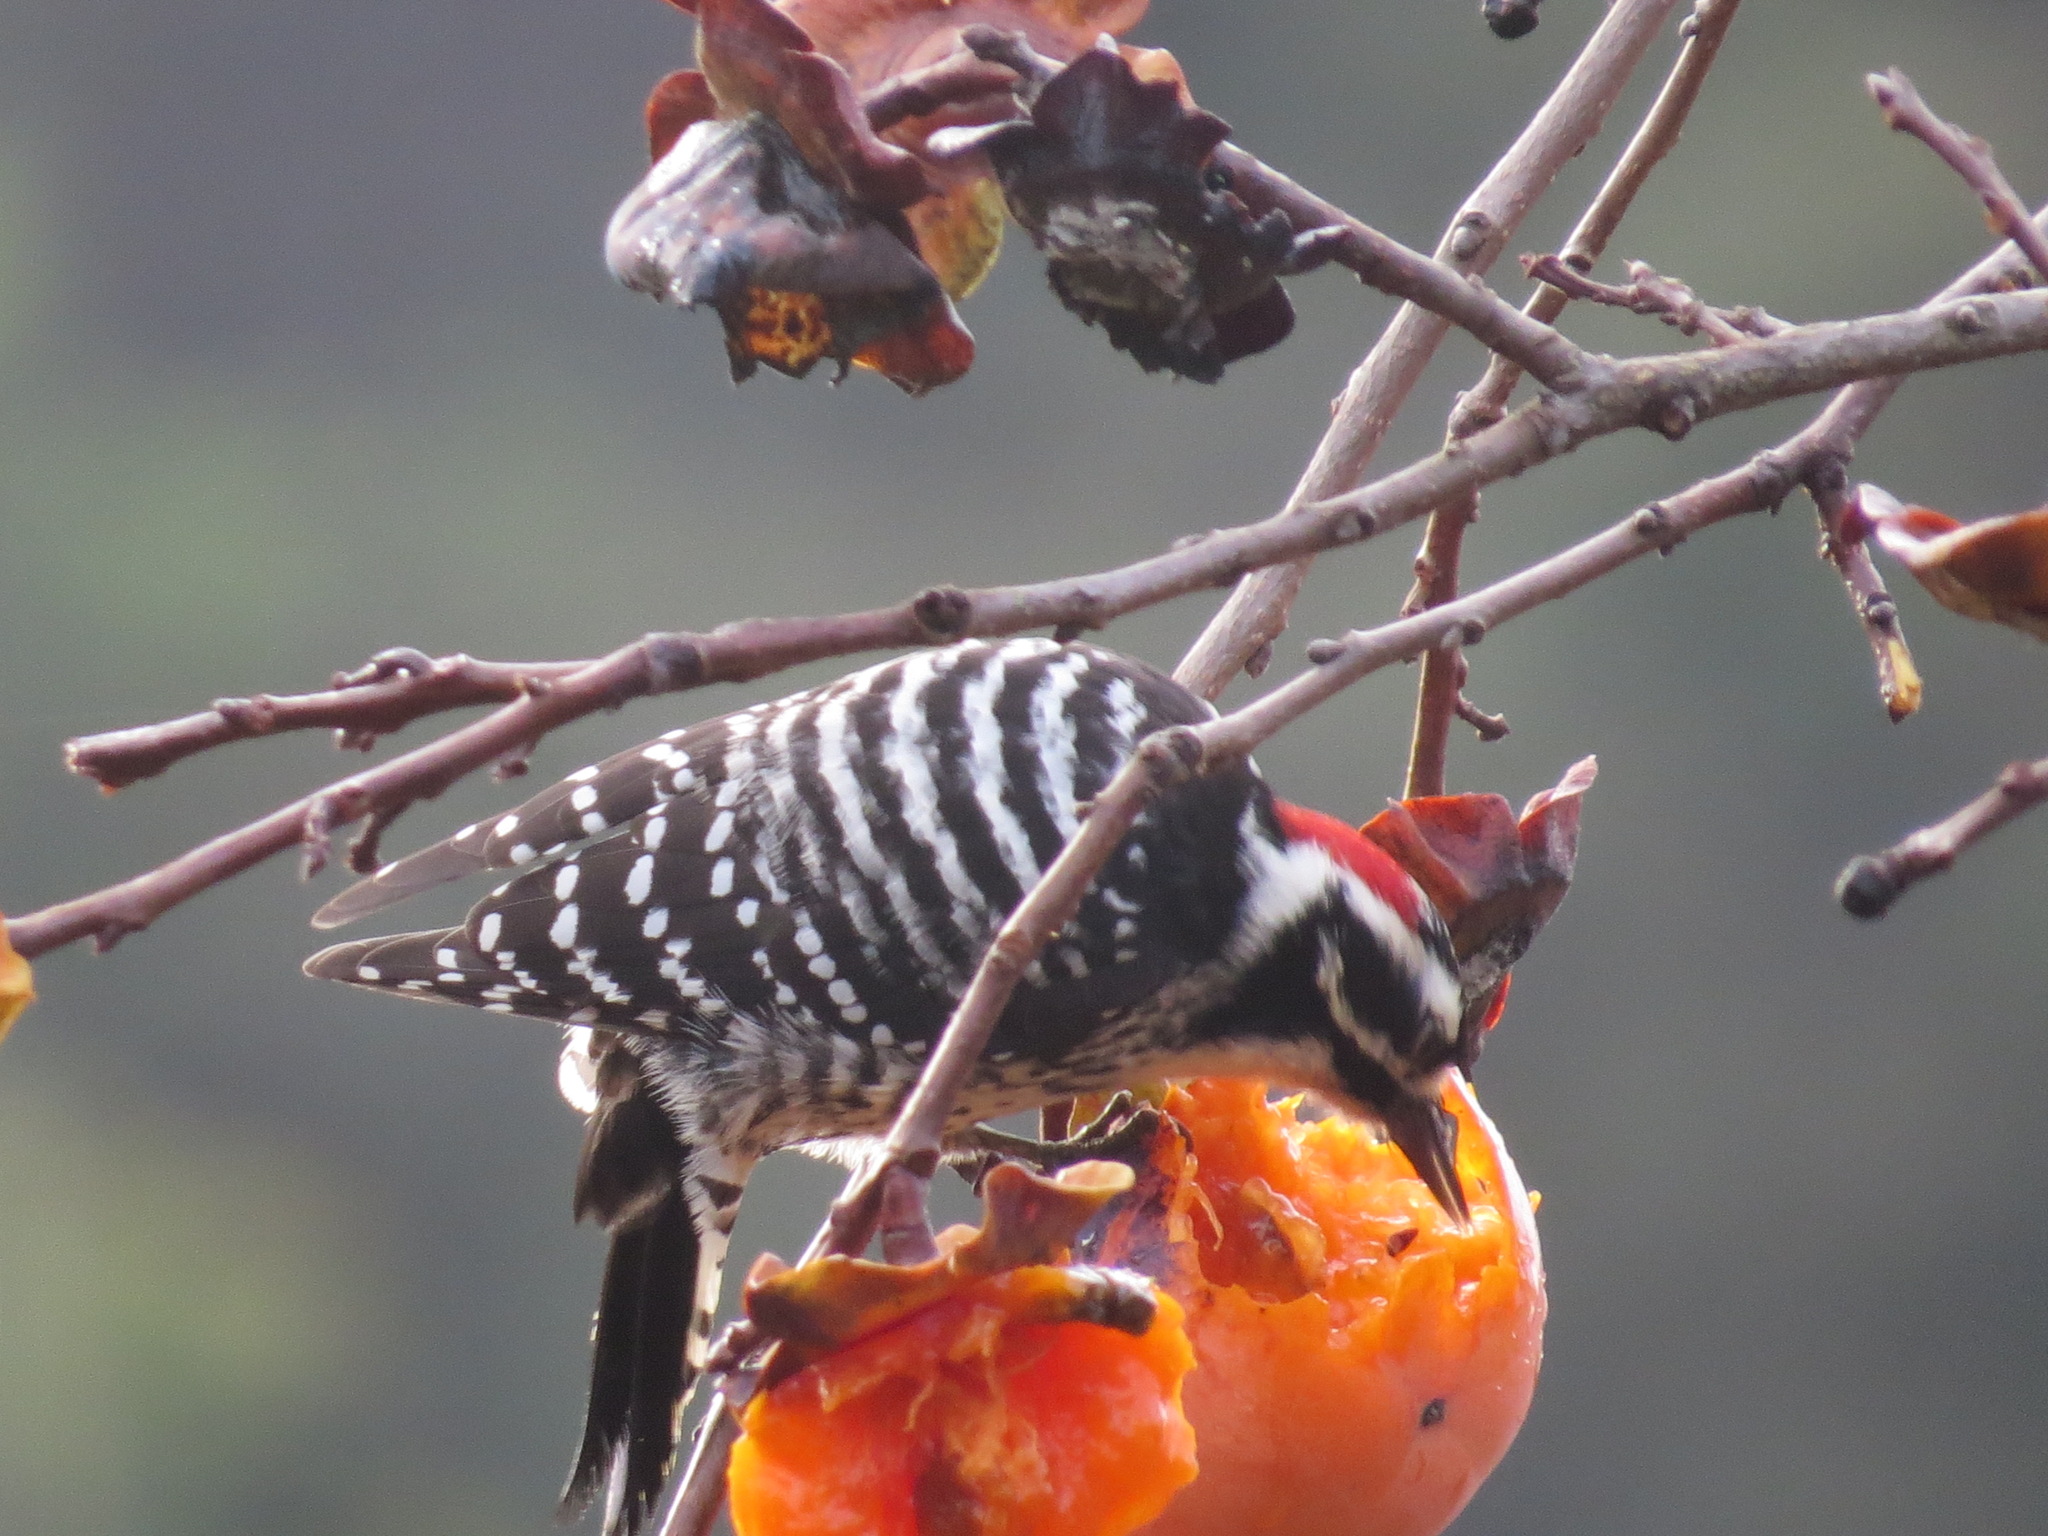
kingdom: Animalia
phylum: Chordata
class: Aves
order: Piciformes
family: Picidae
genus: Dryobates
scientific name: Dryobates nuttallii
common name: Nuttall's woodpecker
